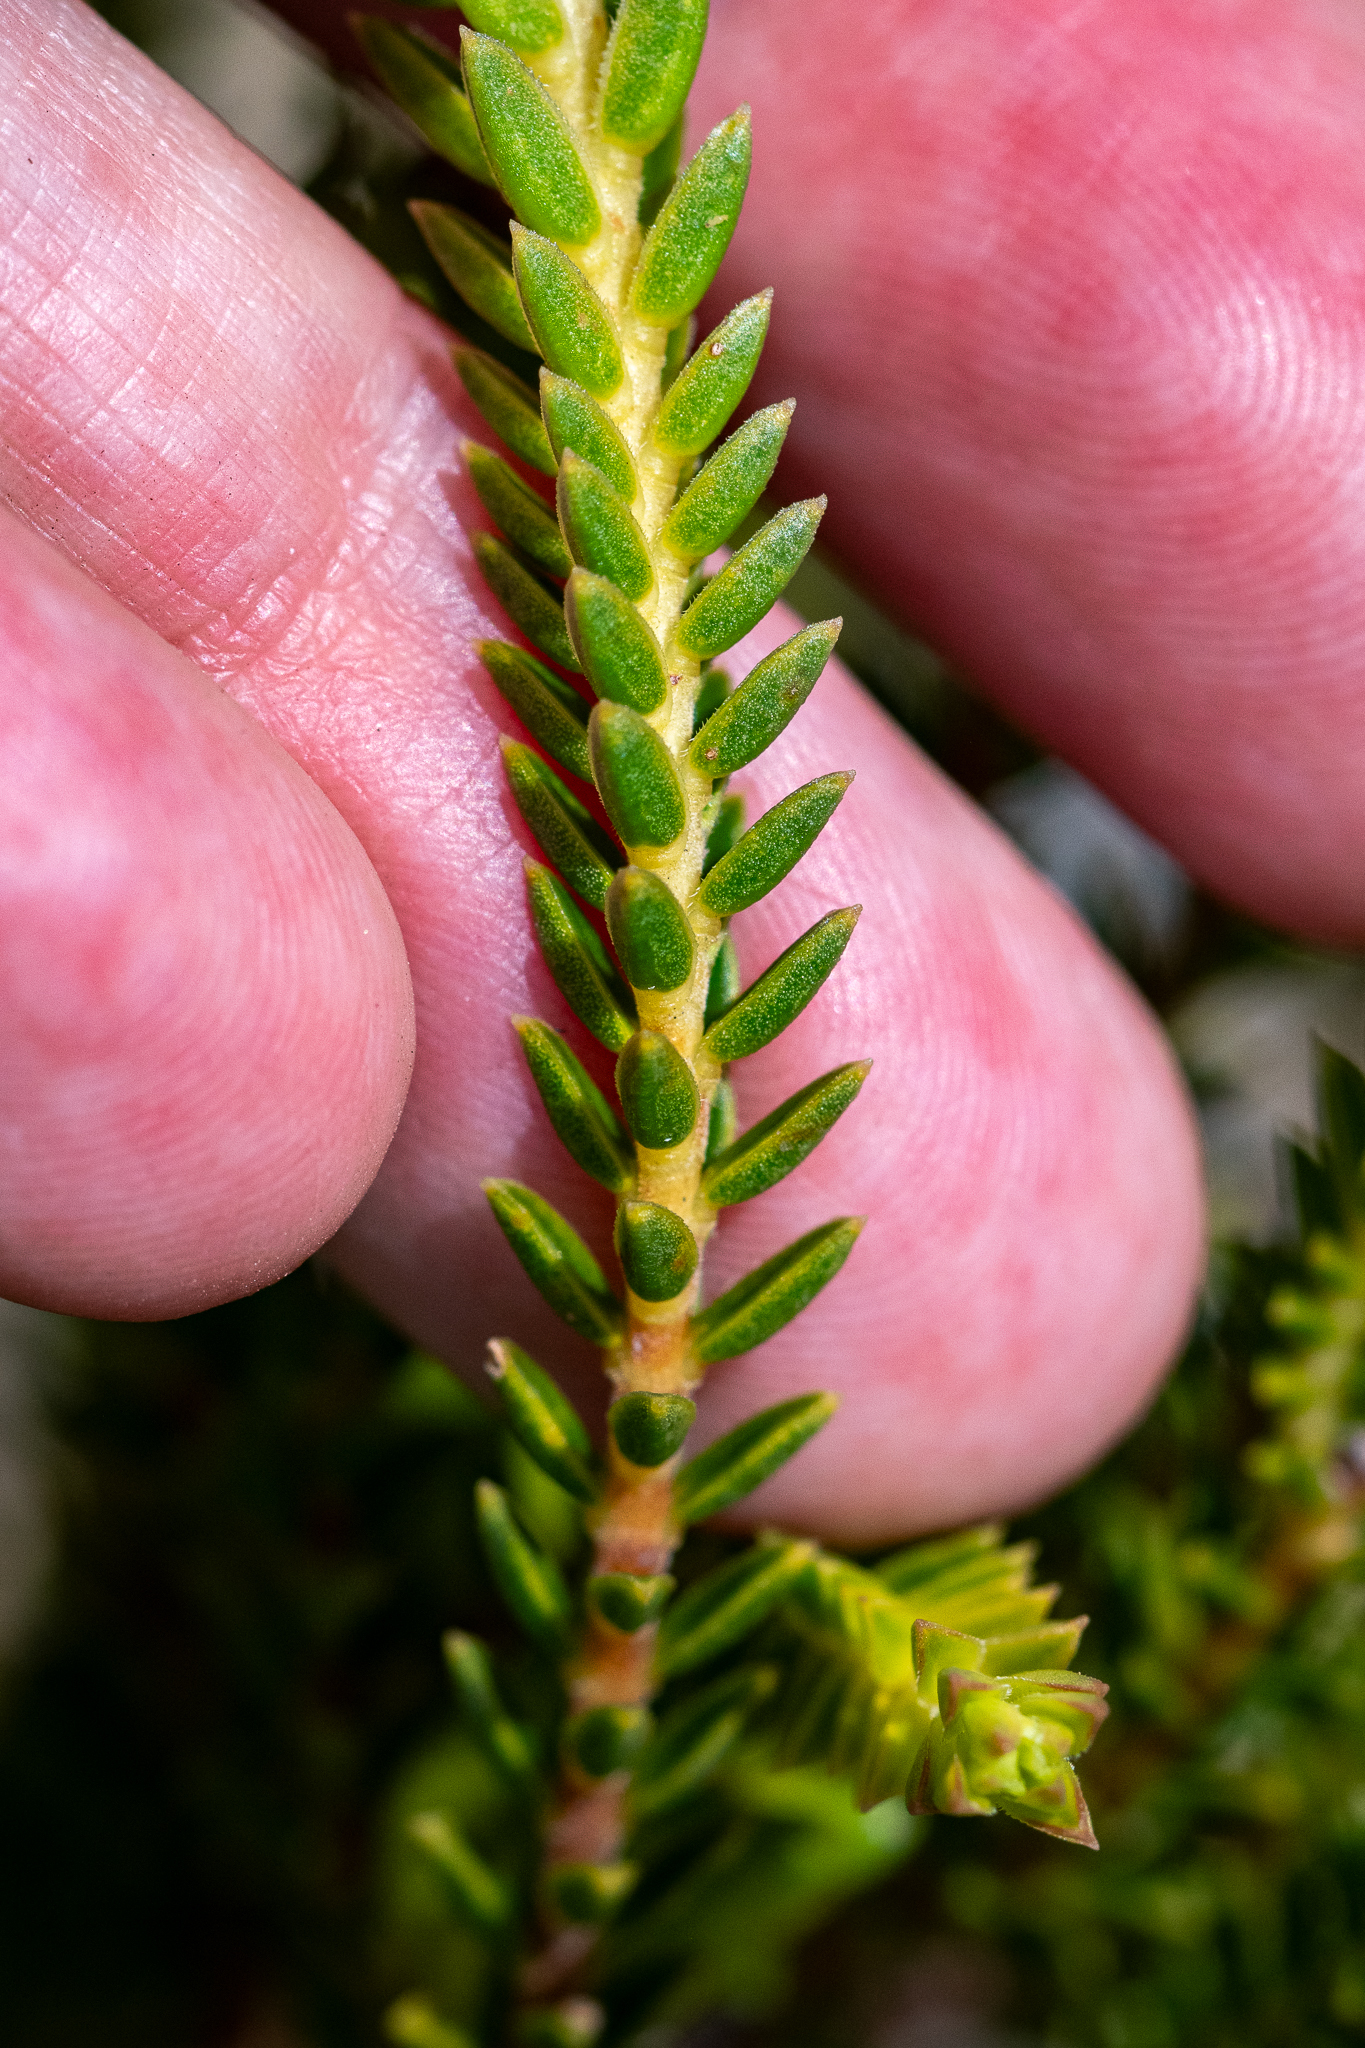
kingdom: Plantae
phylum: Tracheophyta
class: Magnoliopsida
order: Sapindales
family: Rutaceae
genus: Diosma
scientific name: Diosma oppositifolia
